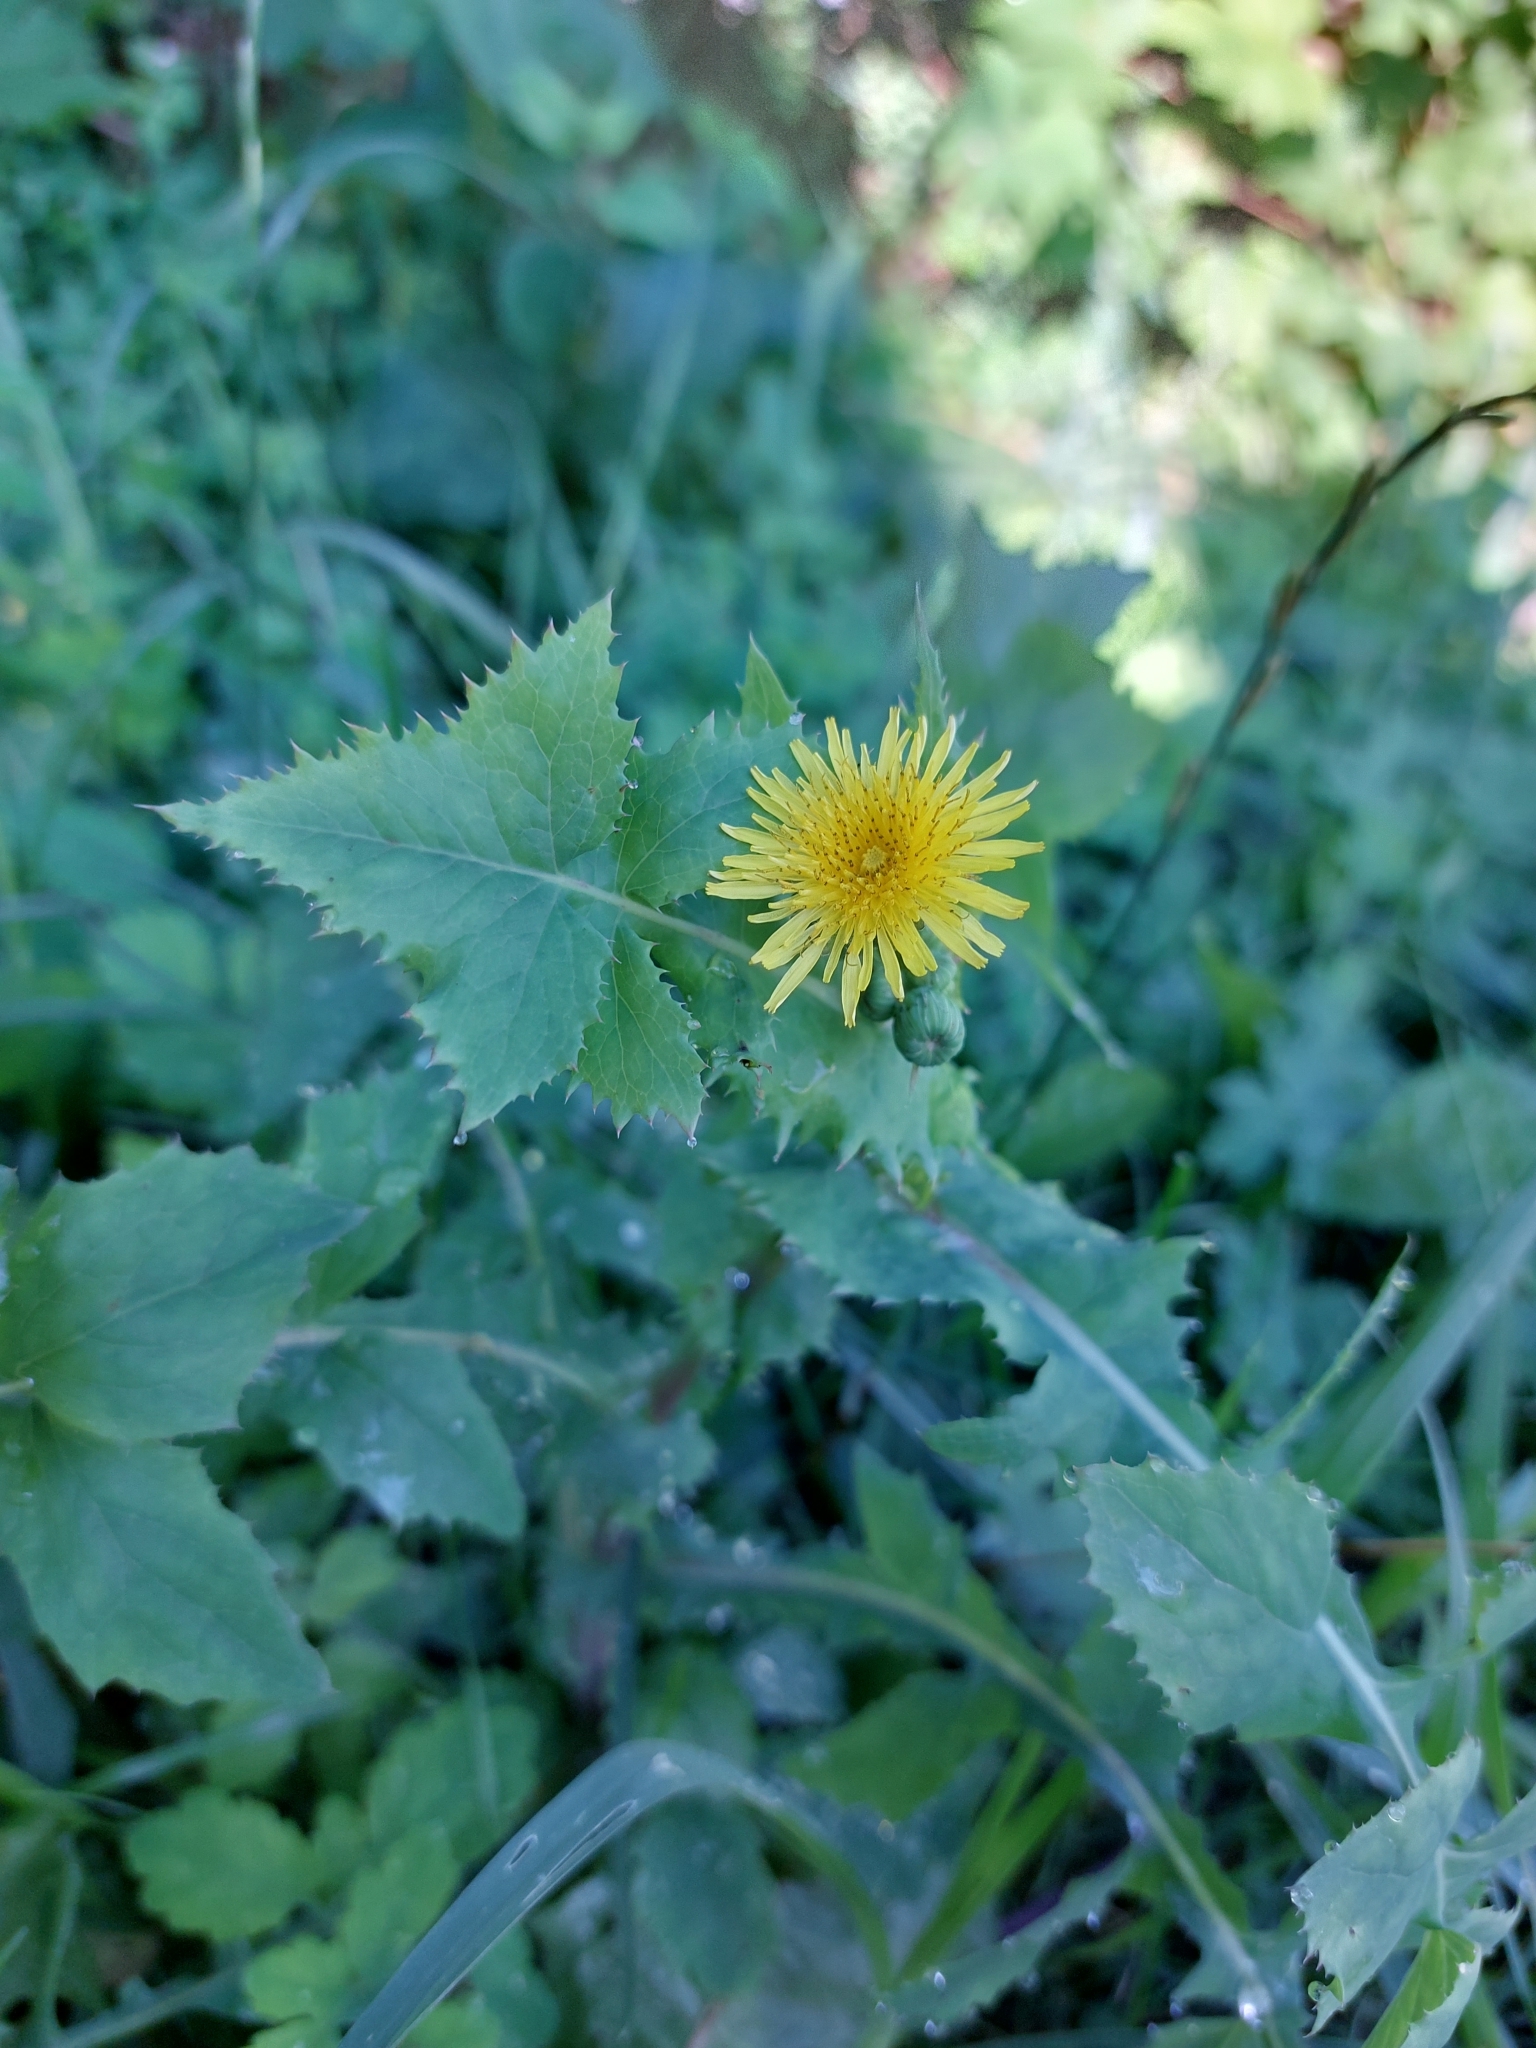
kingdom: Plantae
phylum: Tracheophyta
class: Magnoliopsida
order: Asterales
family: Asteraceae
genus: Sonchus
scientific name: Sonchus oleraceus
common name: Common sowthistle
